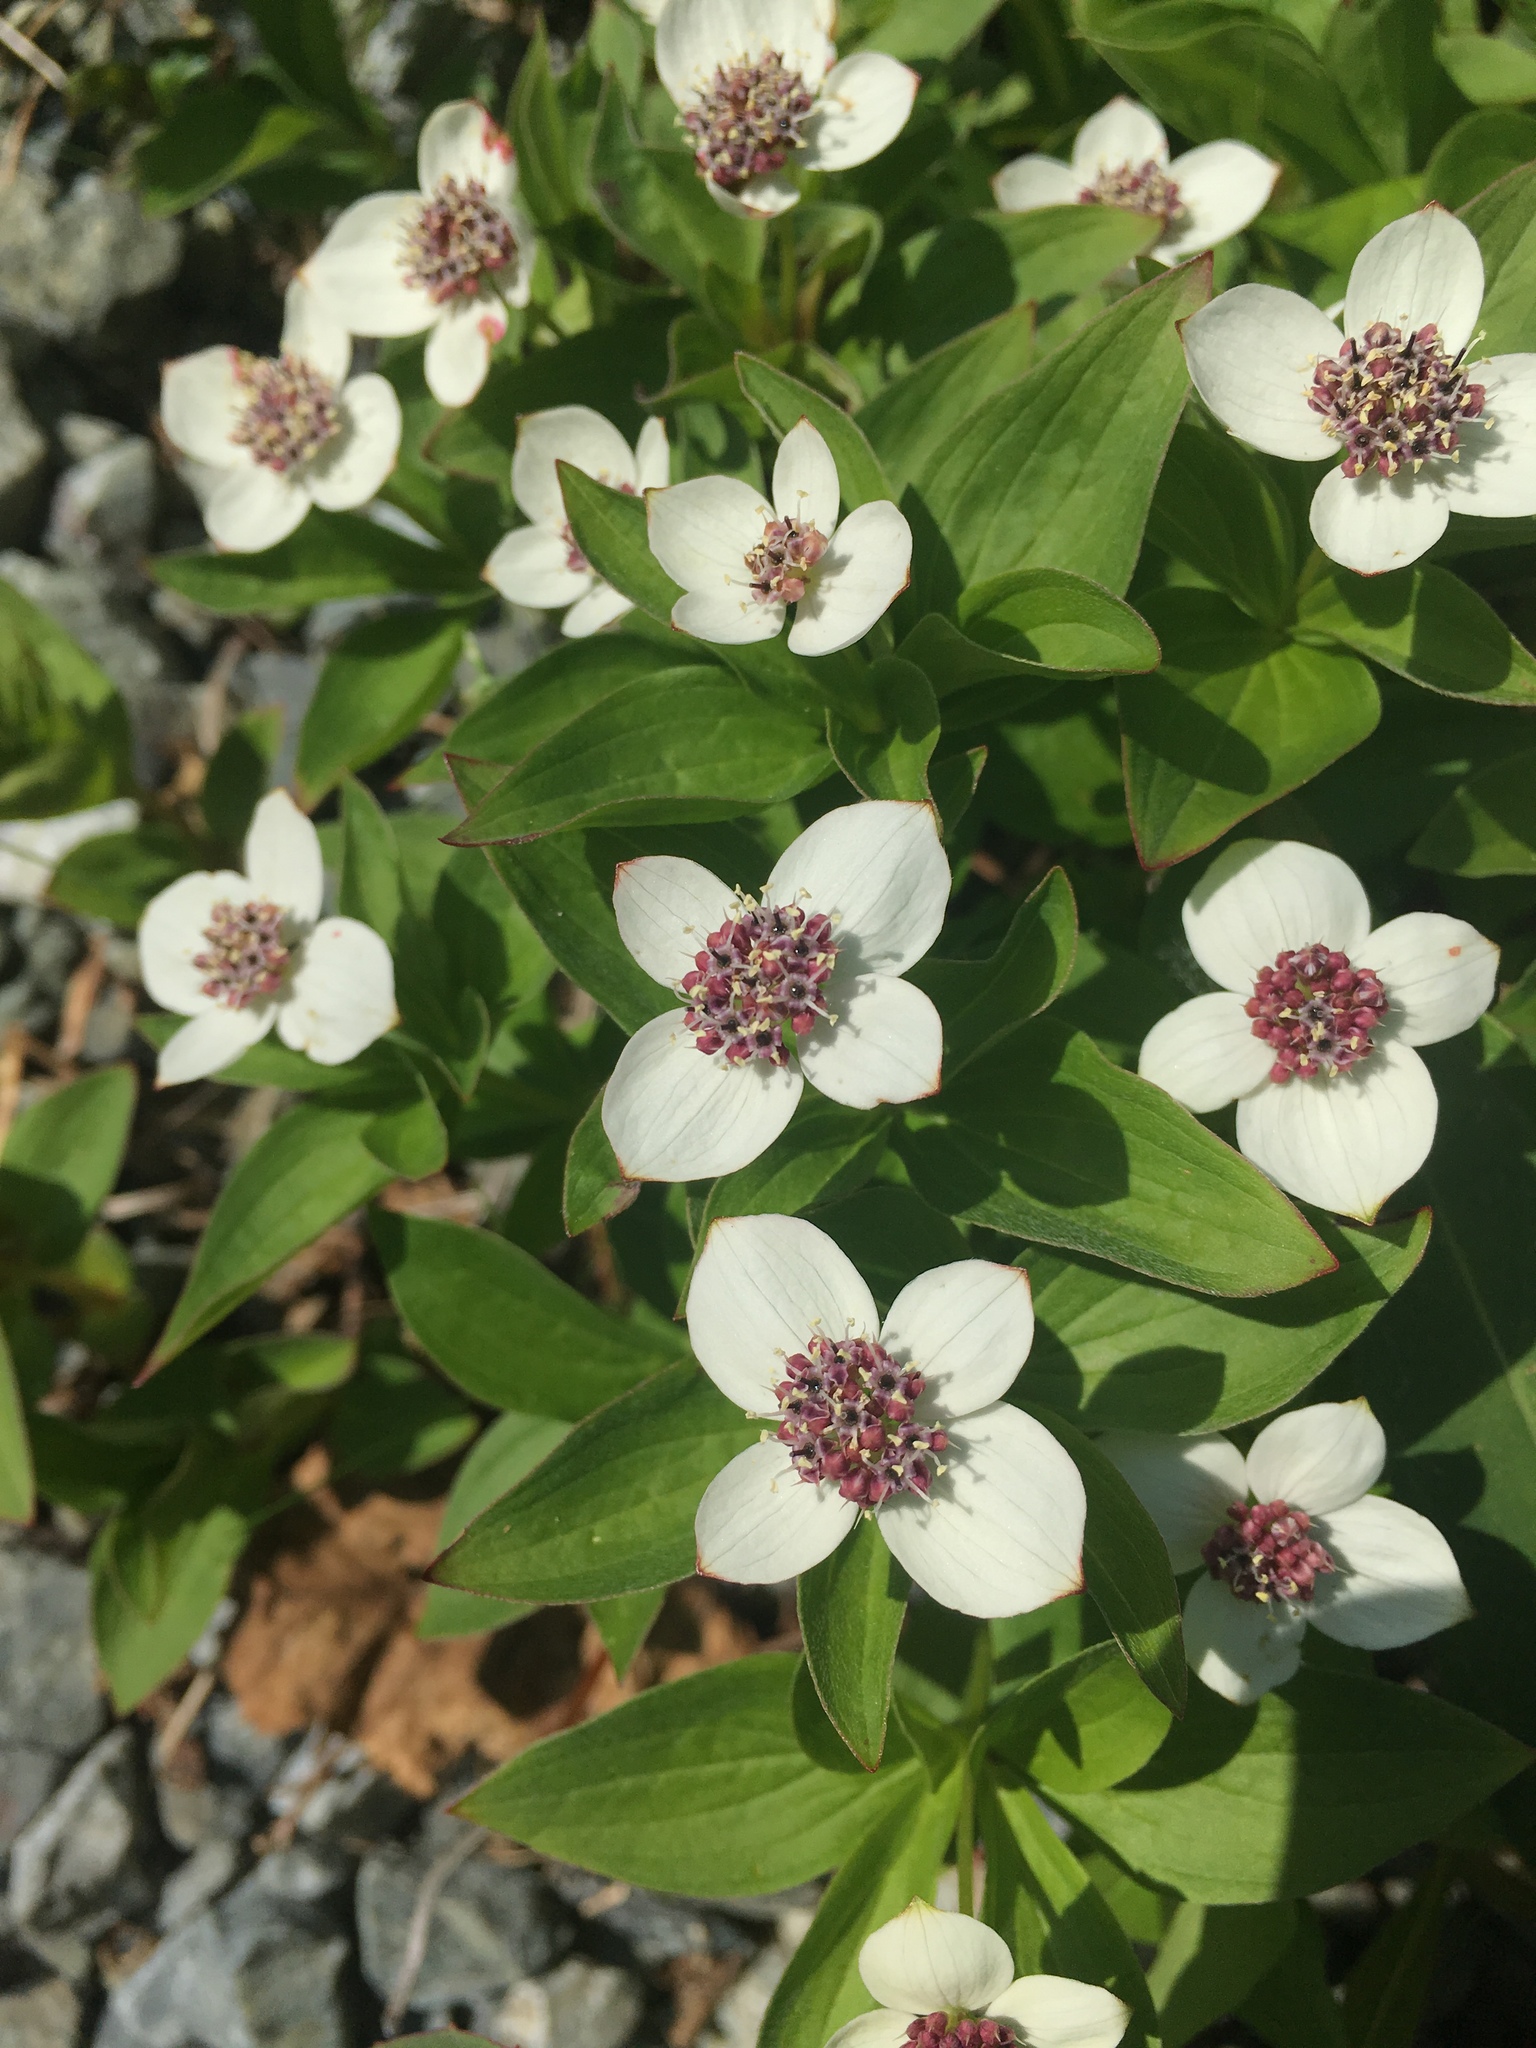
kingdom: Plantae
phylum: Tracheophyta
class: Magnoliopsida
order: Cornales
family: Cornaceae
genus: Cornus
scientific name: Cornus unalaschkensis
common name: Alaska bunchberry
